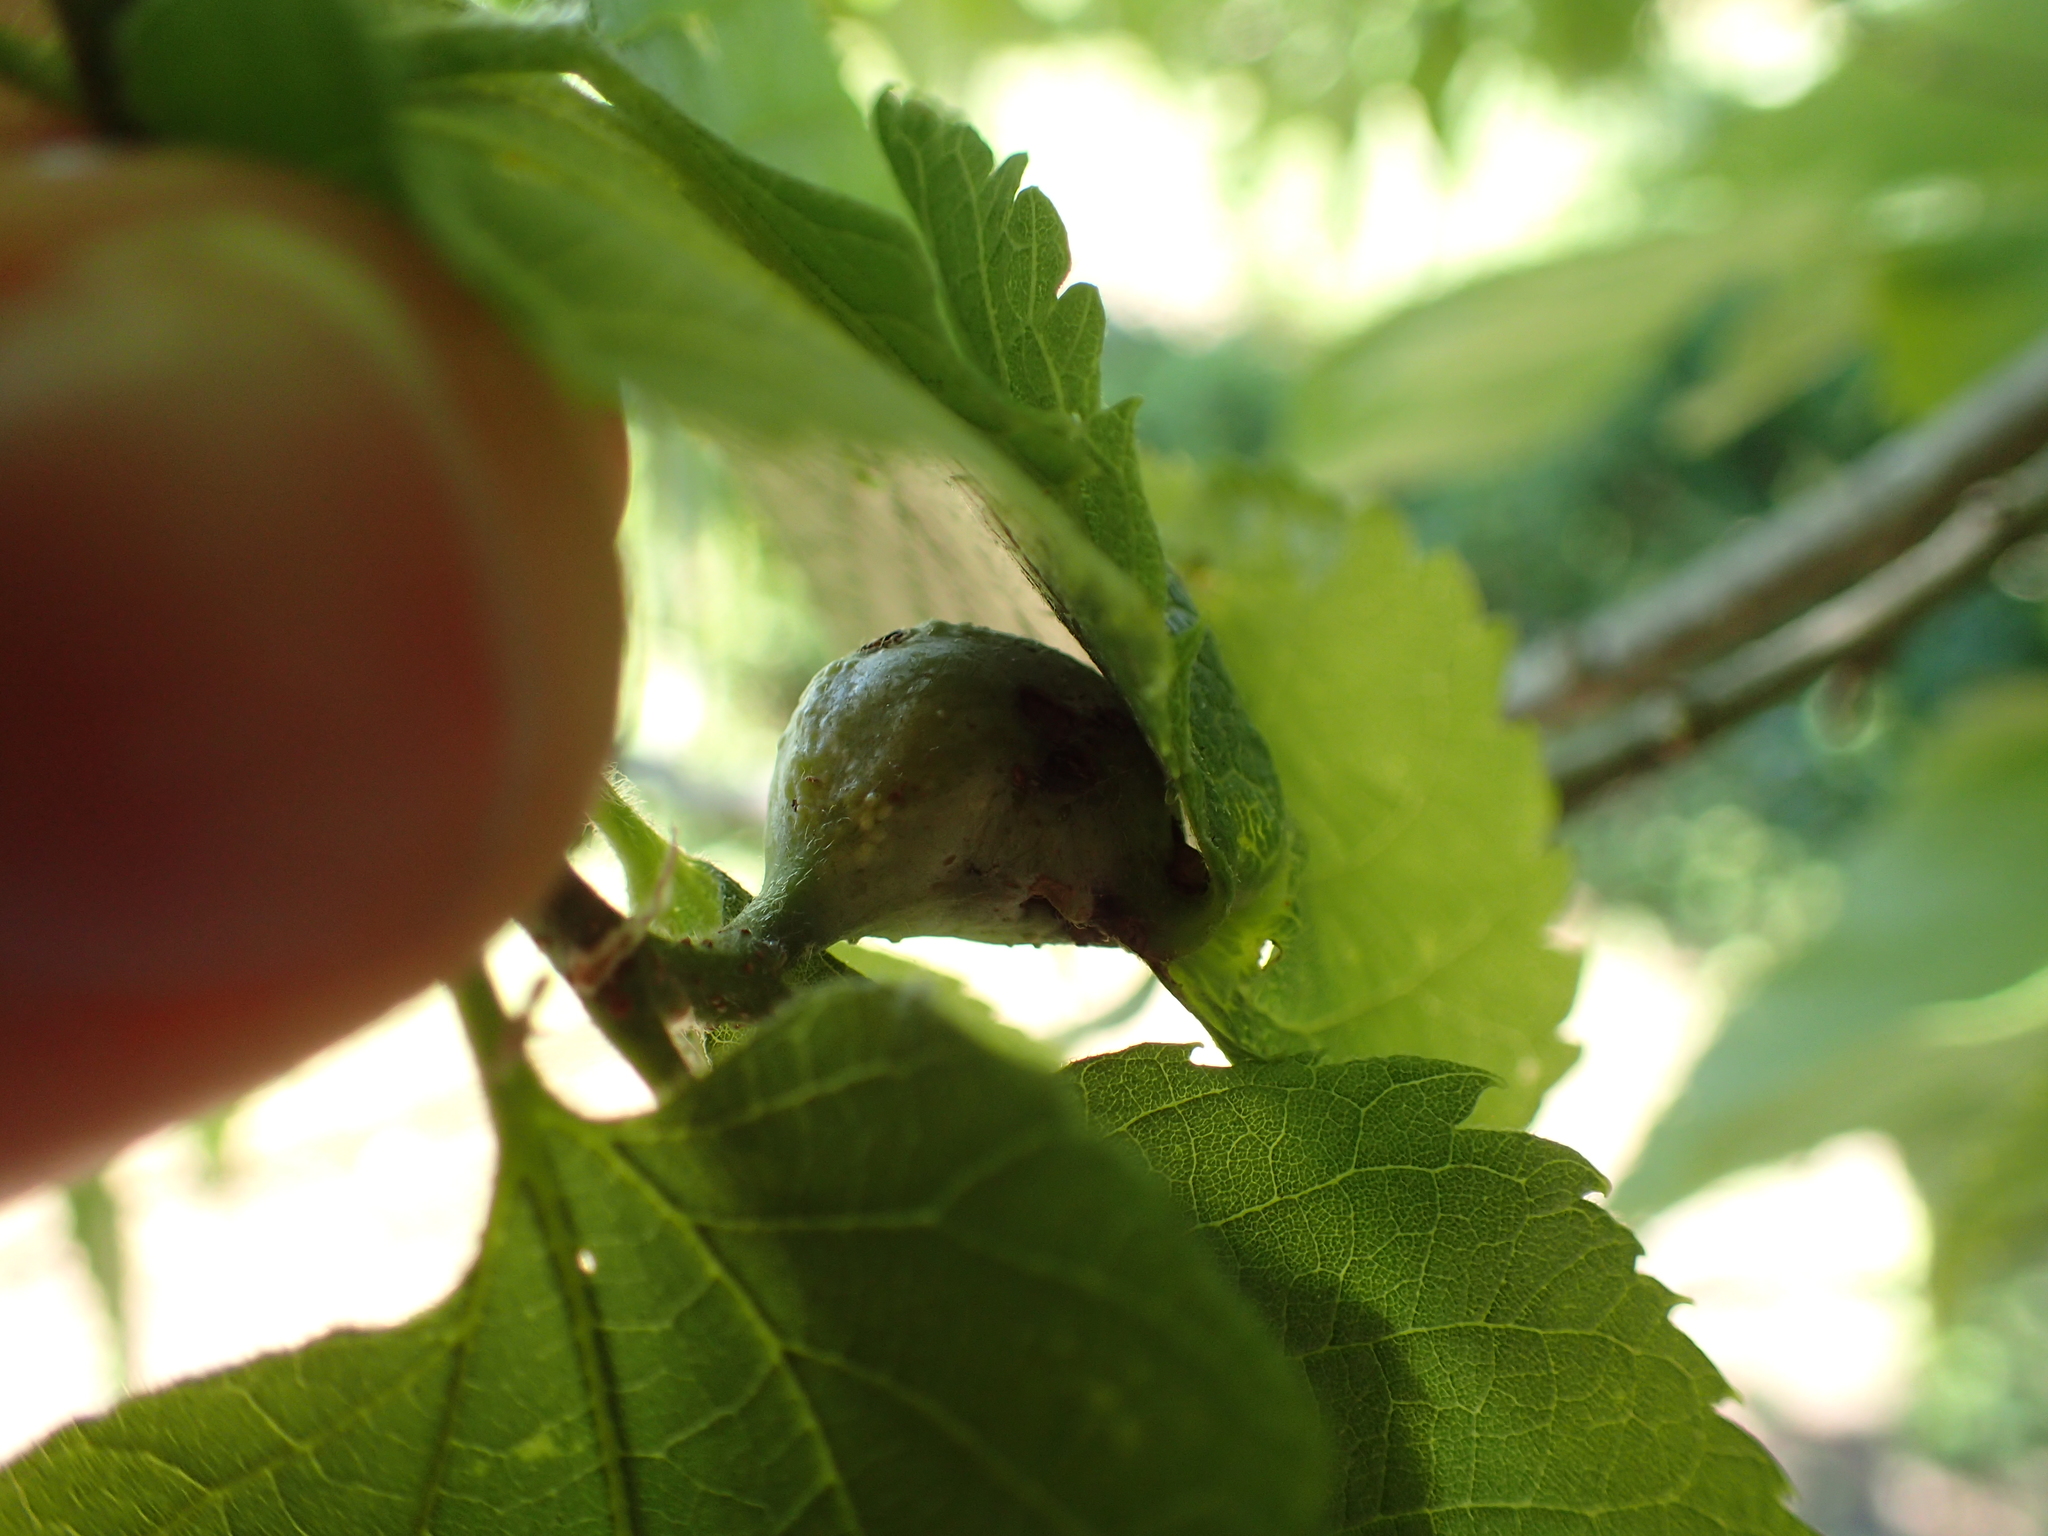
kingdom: Animalia
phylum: Arthropoda
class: Insecta
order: Hemiptera
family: Aphalaridae
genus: Pachypsylla
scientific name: Pachypsylla venusta
